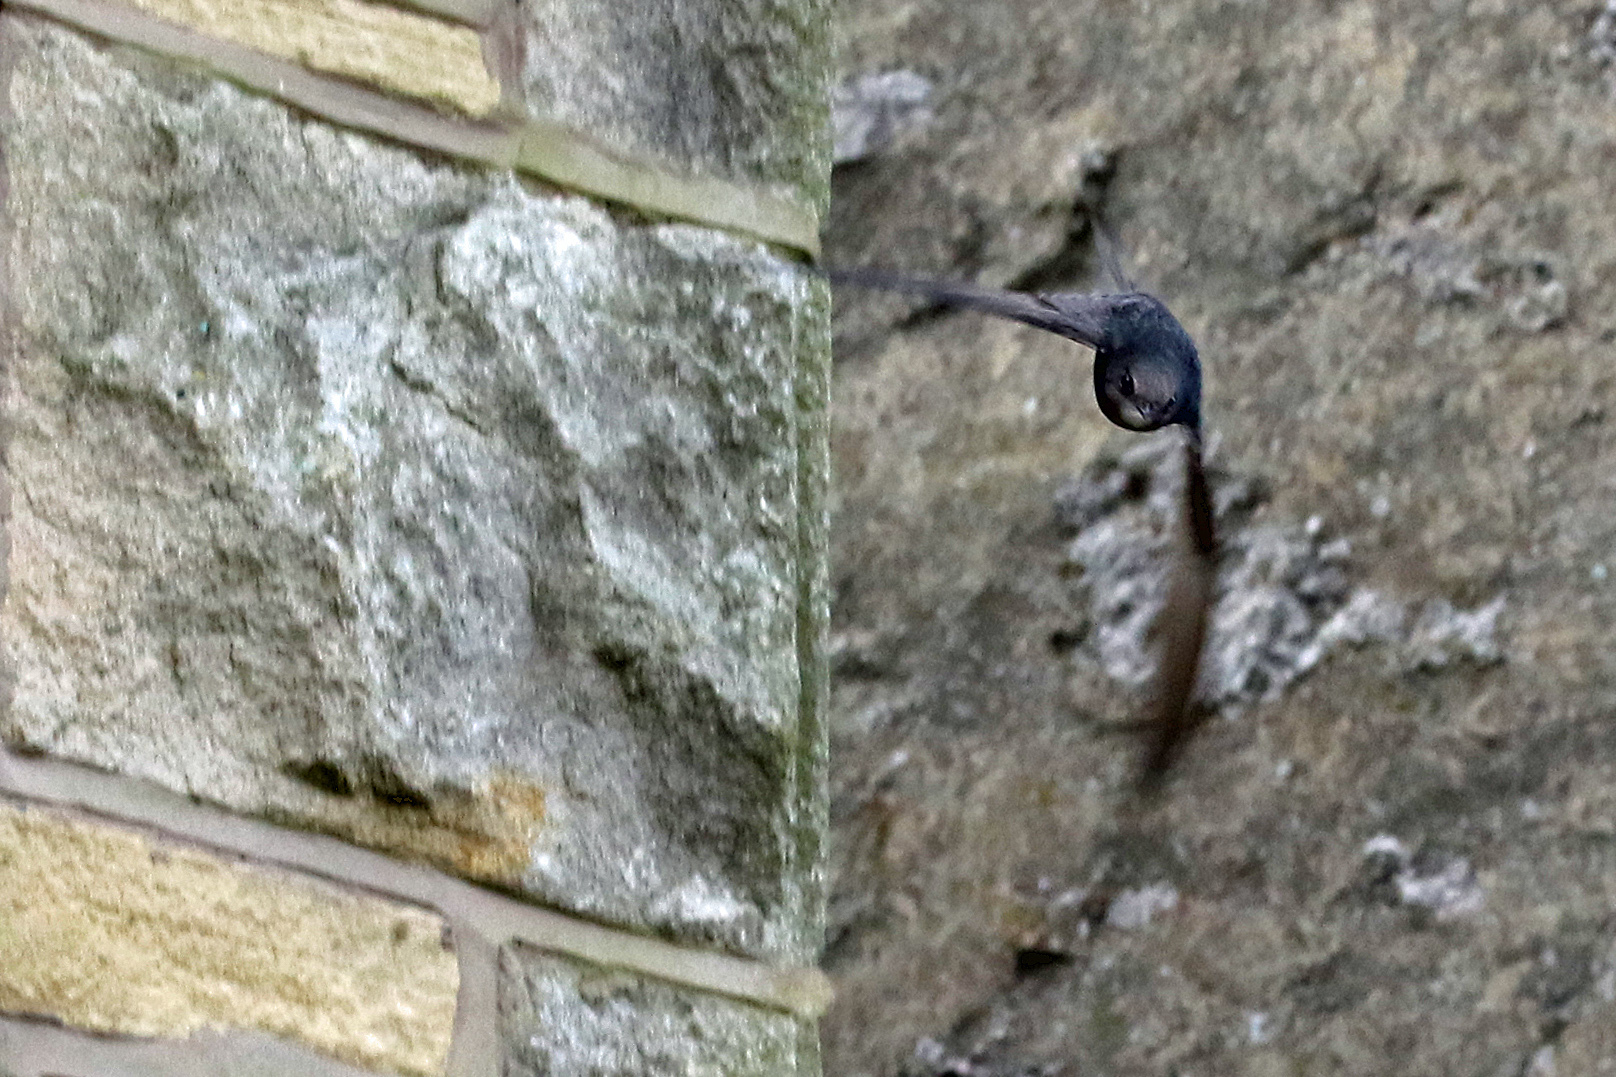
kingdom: Animalia
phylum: Chordata
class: Aves
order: Apodiformes
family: Apodidae
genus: Apus
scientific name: Apus apus
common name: Common swift
